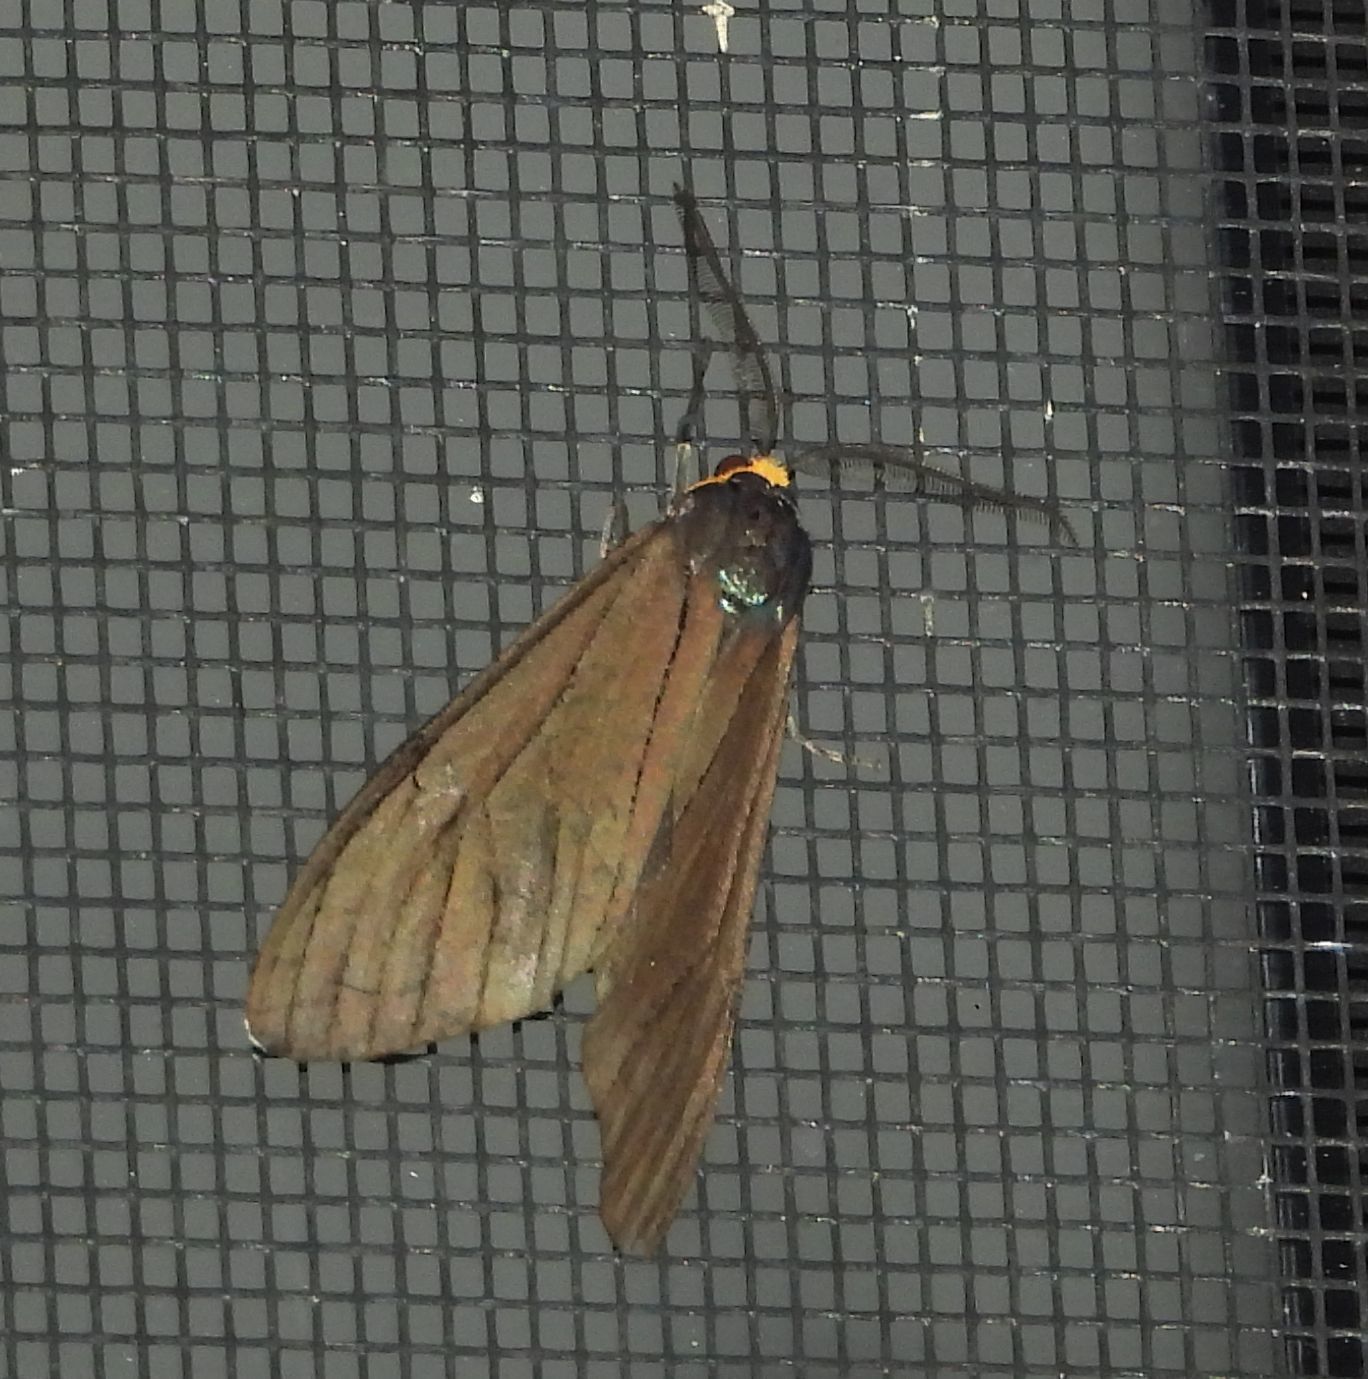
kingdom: Animalia
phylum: Arthropoda
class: Insecta
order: Lepidoptera
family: Erebidae
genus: Ctenucha
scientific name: Ctenucha virginica
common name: Virginia ctenucha moth
